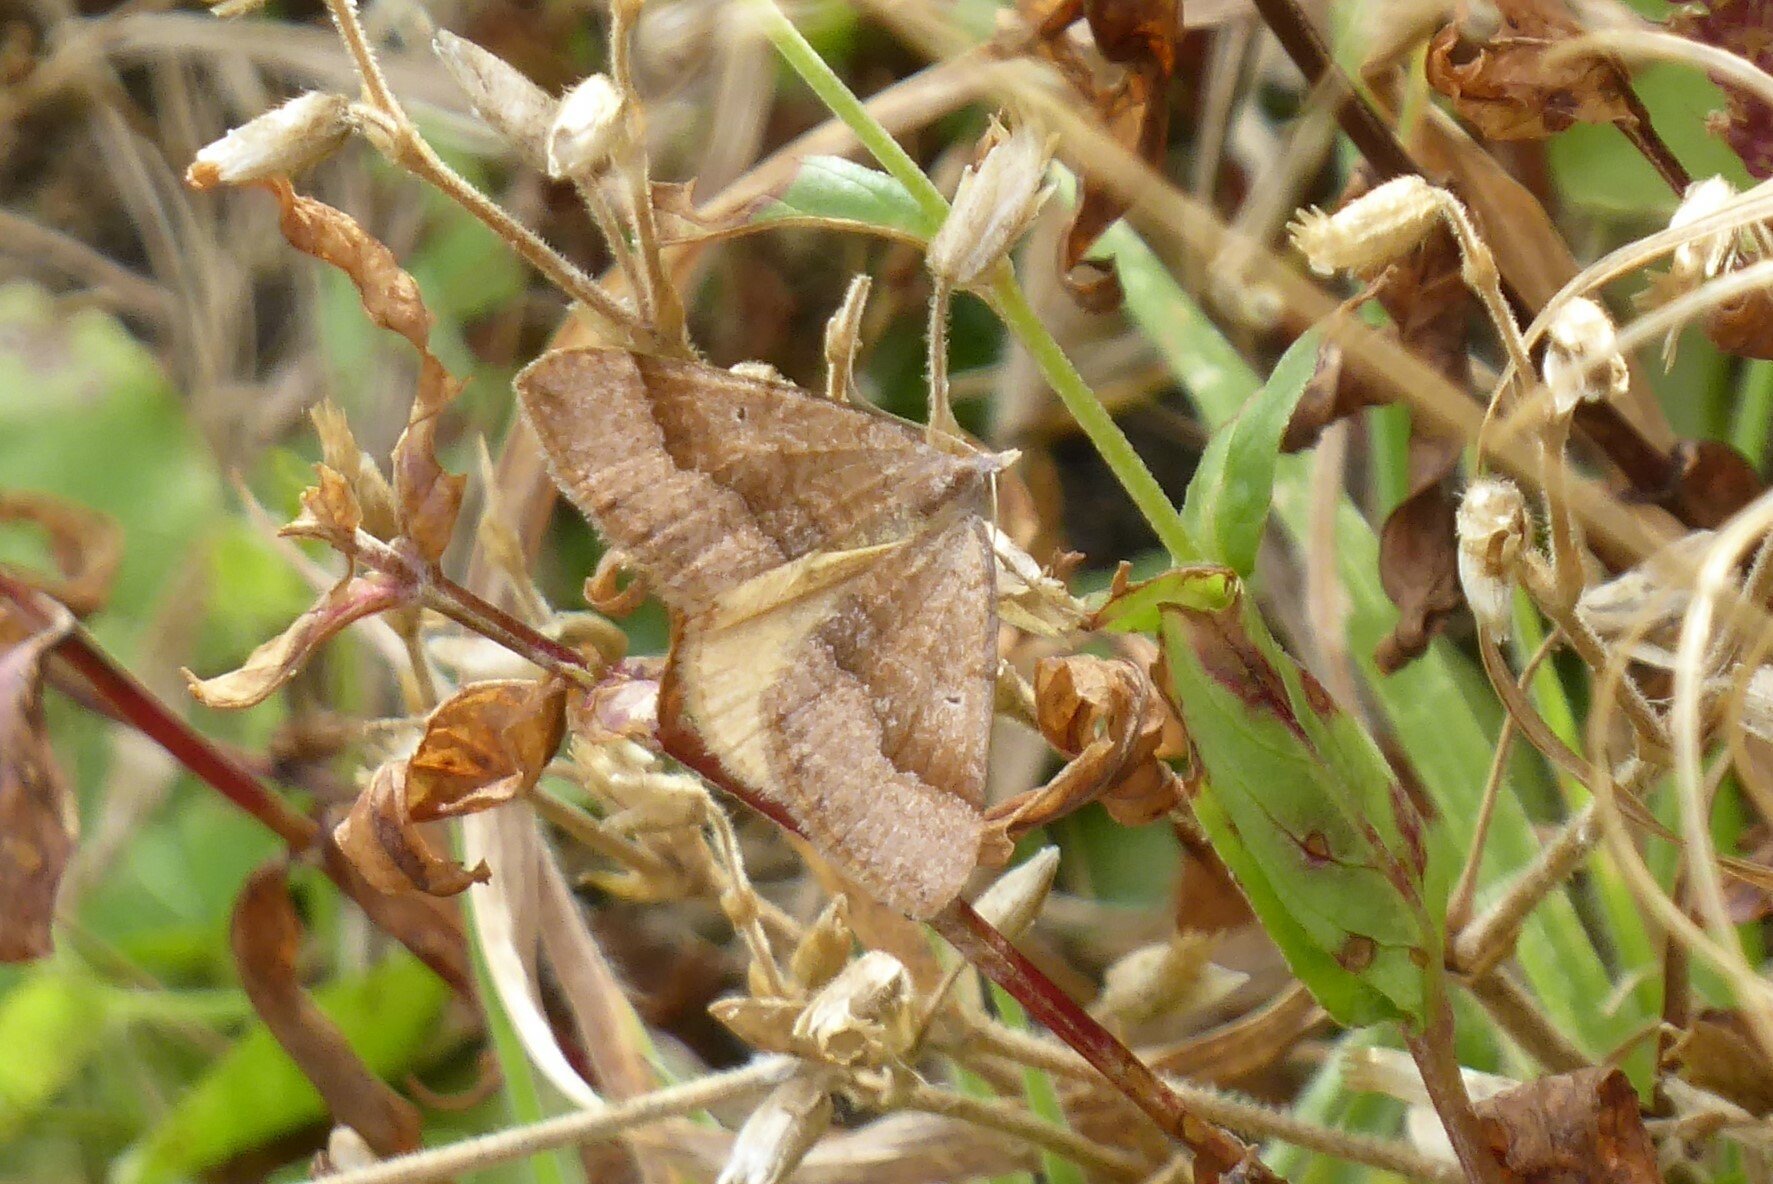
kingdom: Animalia
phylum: Arthropoda
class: Insecta
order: Lepidoptera
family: Geometridae
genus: Anachloris
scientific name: Anachloris subochraria
